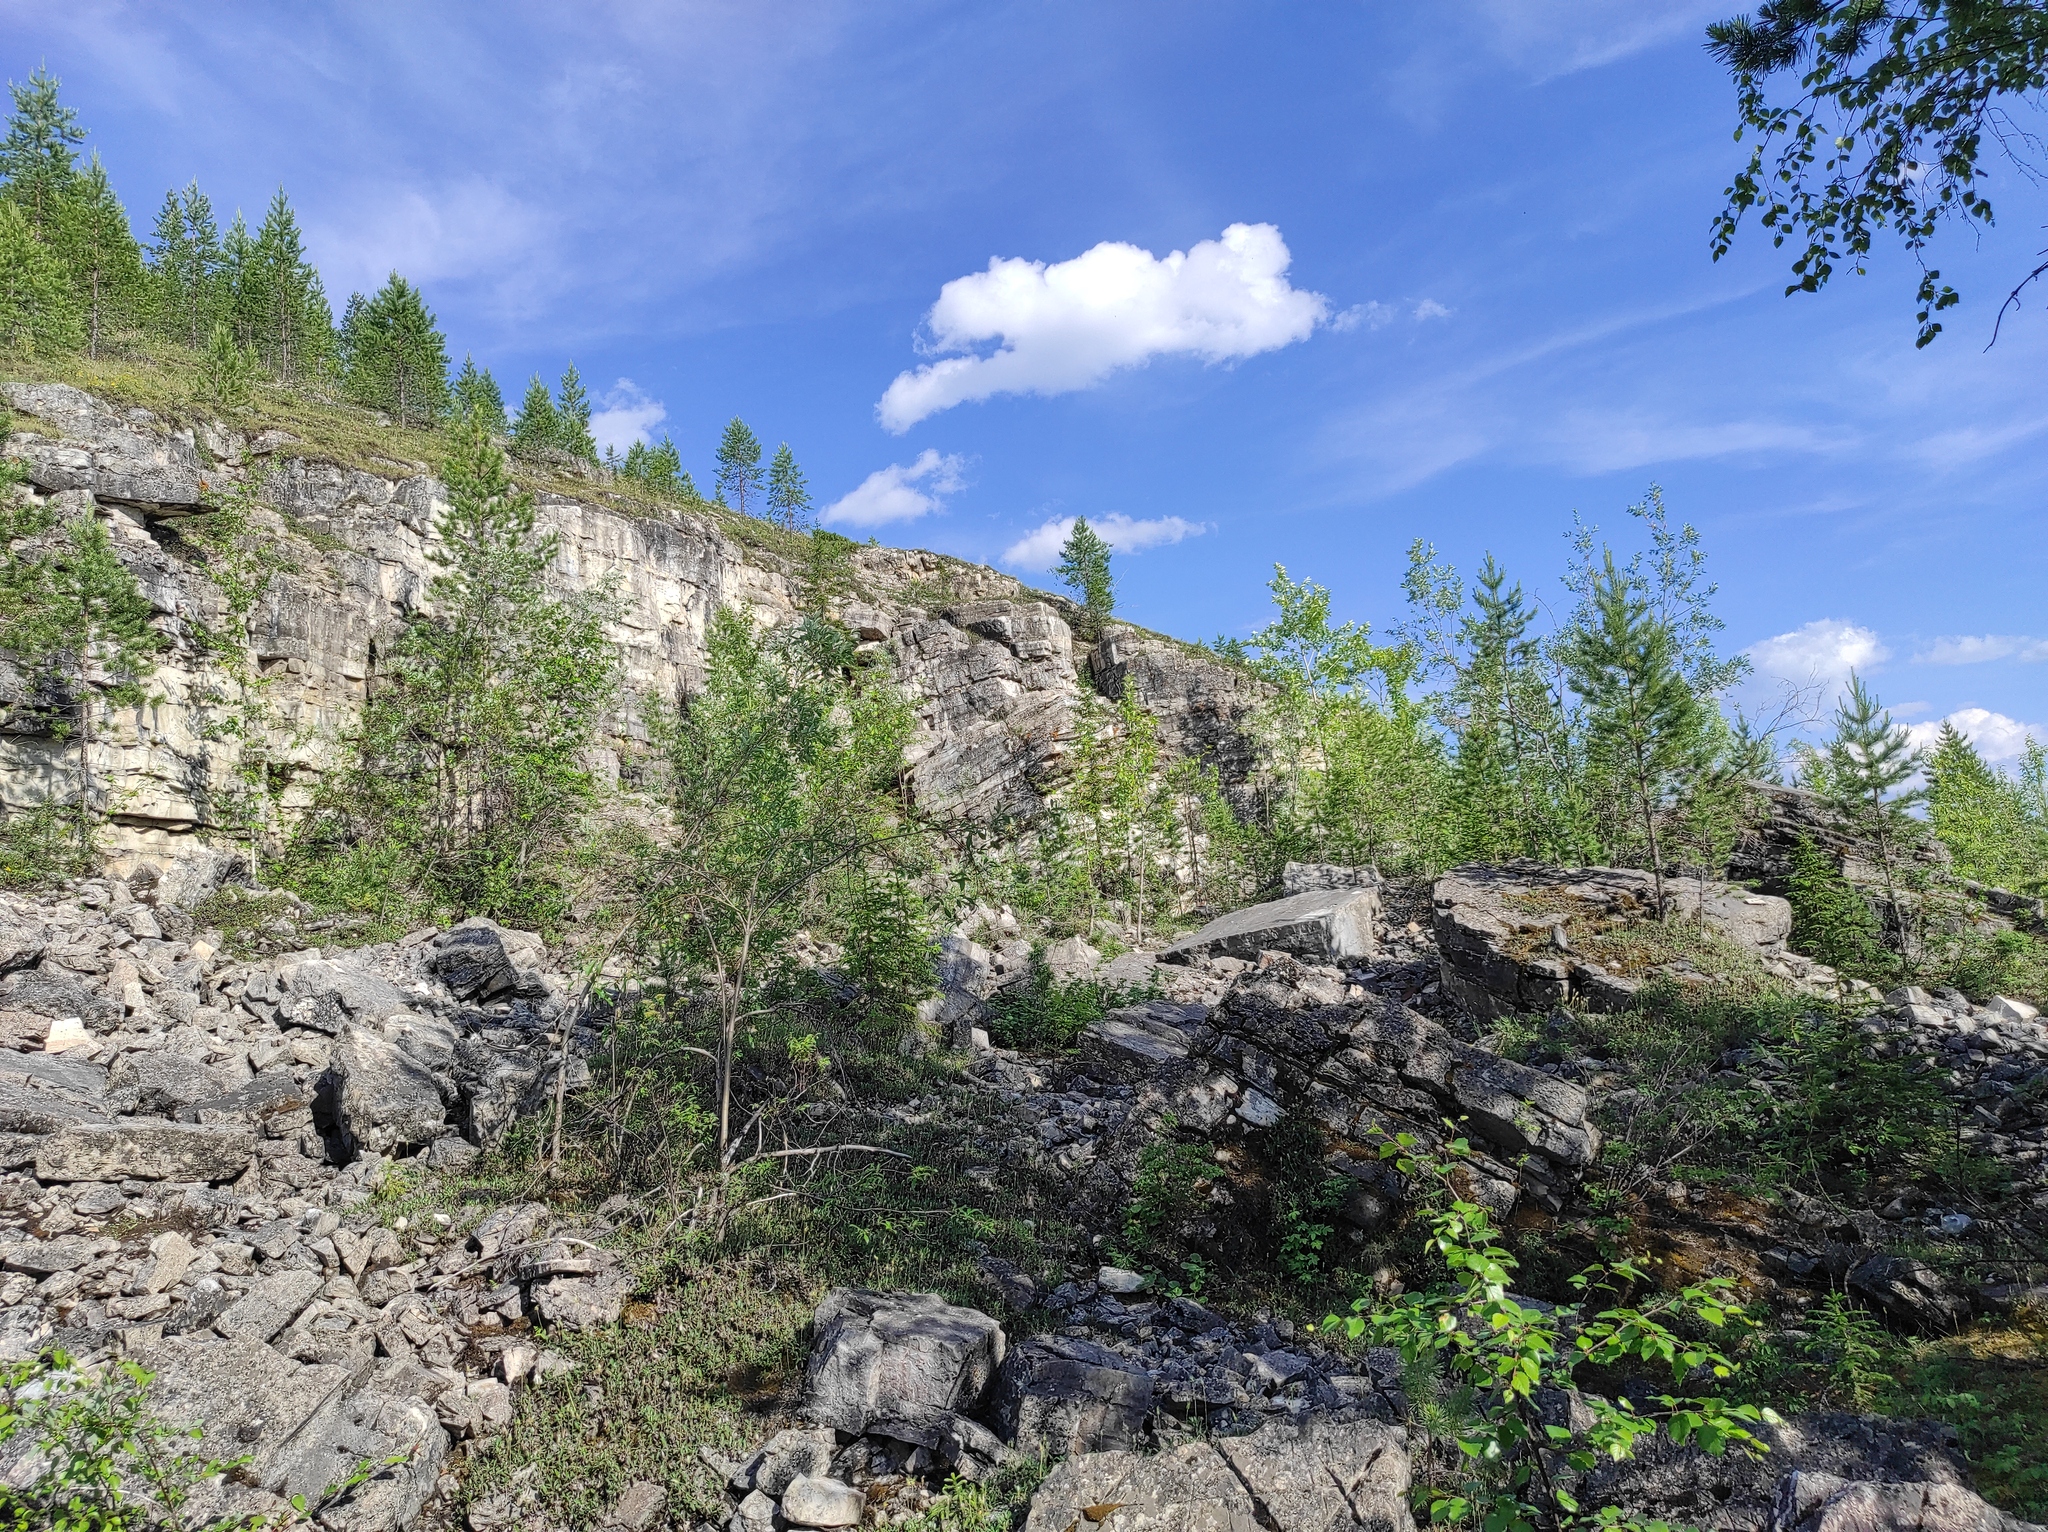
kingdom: Plantae
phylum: Tracheophyta
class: Pinopsida
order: Pinales
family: Pinaceae
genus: Pinus
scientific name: Pinus sylvestris
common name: Scots pine
